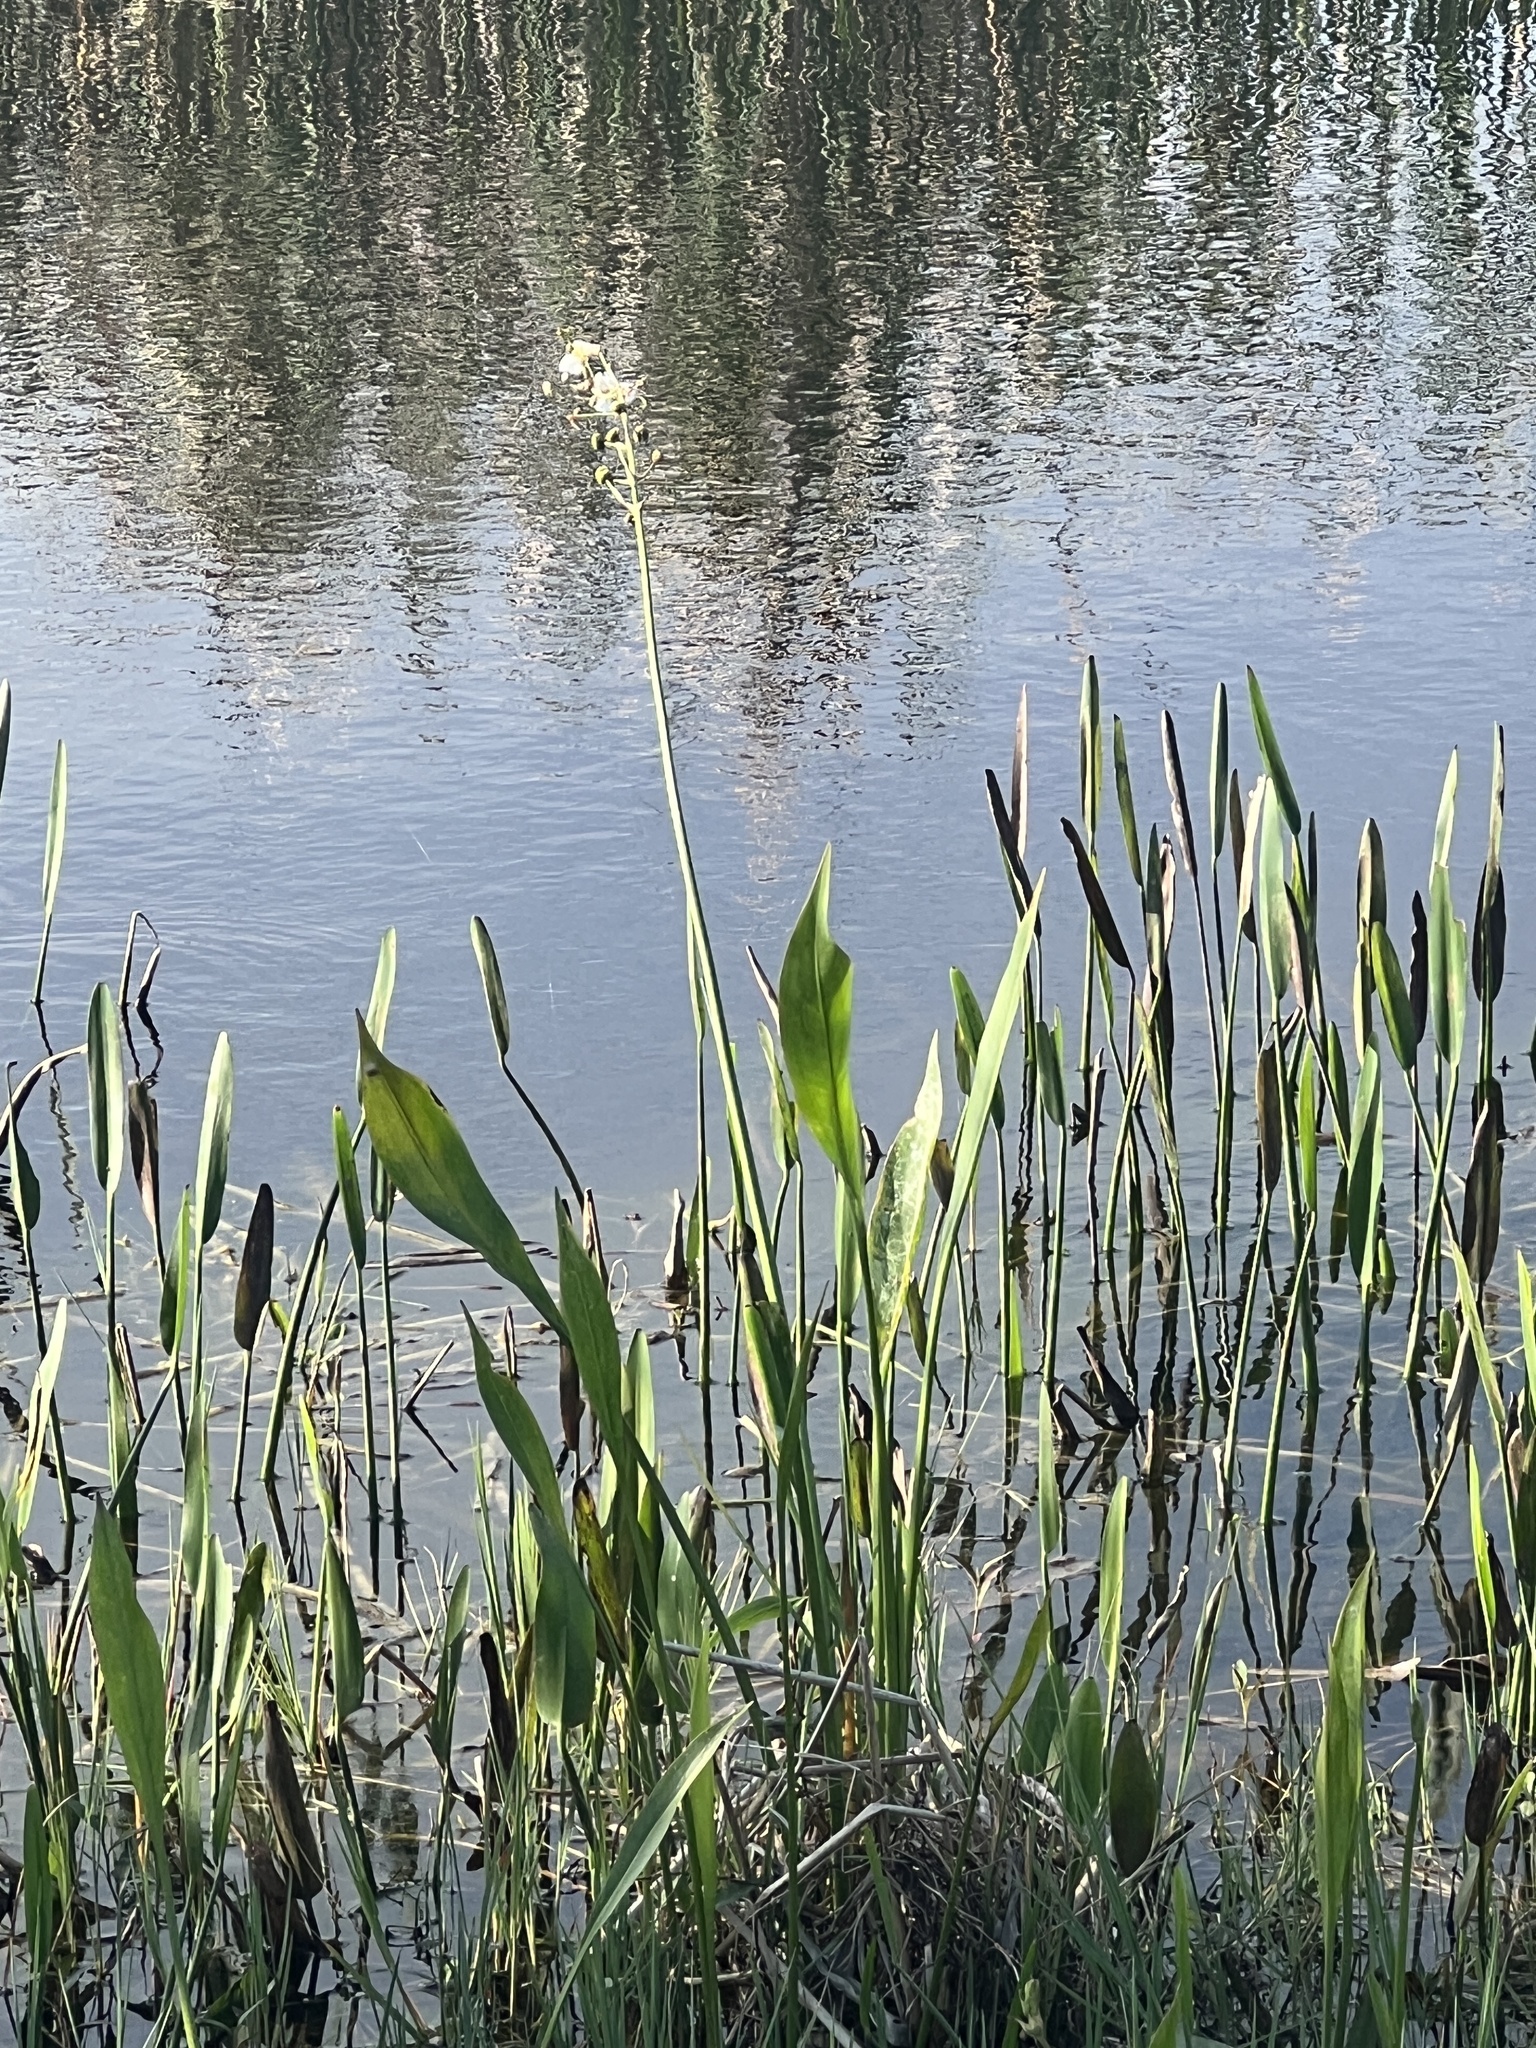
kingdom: Plantae
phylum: Tracheophyta
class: Liliopsida
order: Alismatales
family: Alismataceae
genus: Sagittaria
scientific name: Sagittaria lancifolia
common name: Lance-leaf arrowhead
